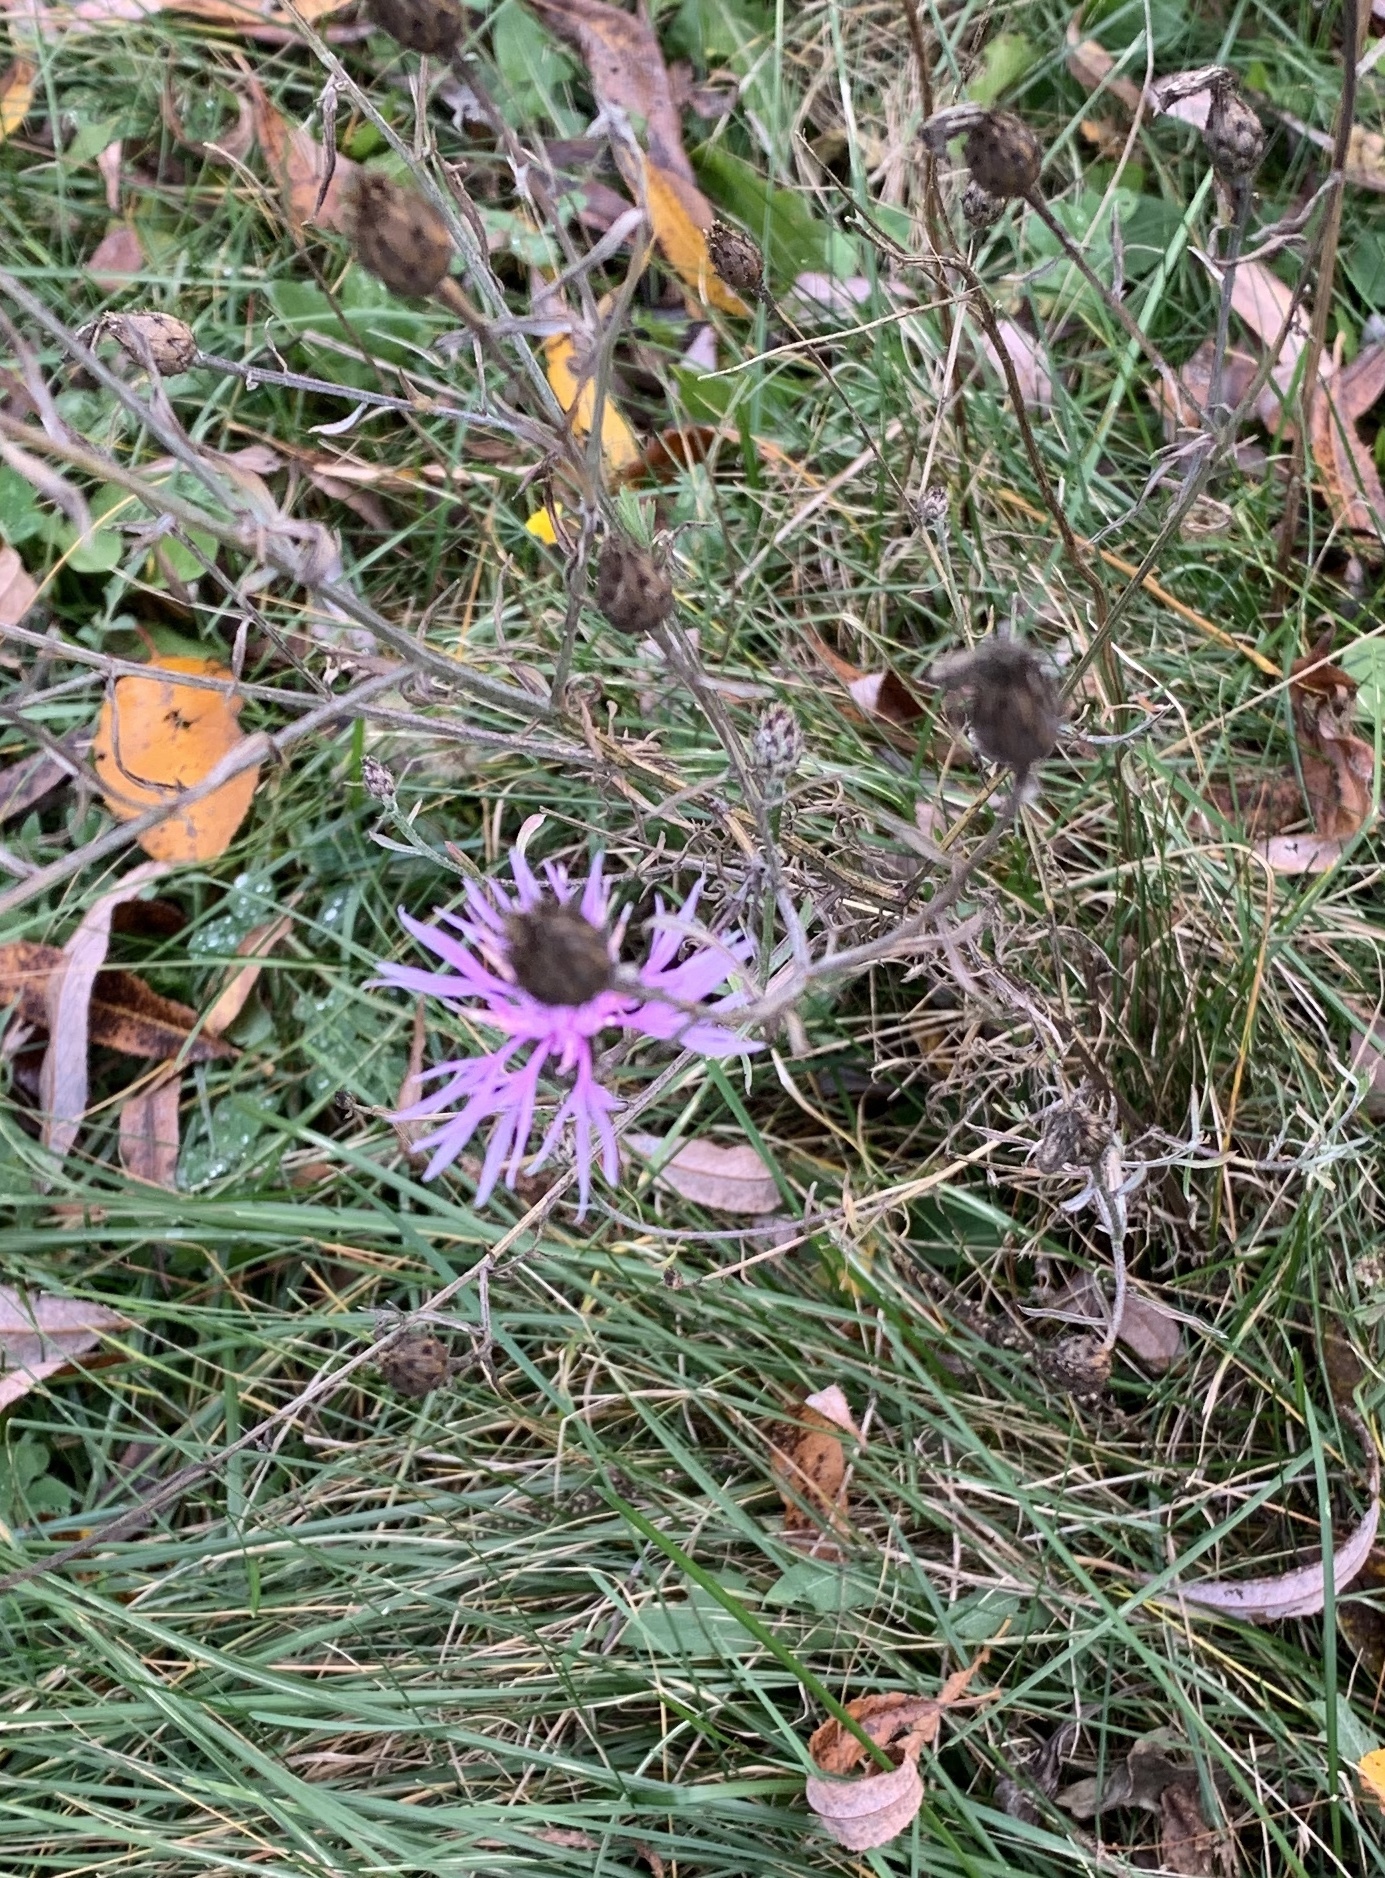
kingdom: Plantae
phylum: Tracheophyta
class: Magnoliopsida
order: Asterales
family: Asteraceae
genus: Centaurea
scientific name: Centaurea australis
